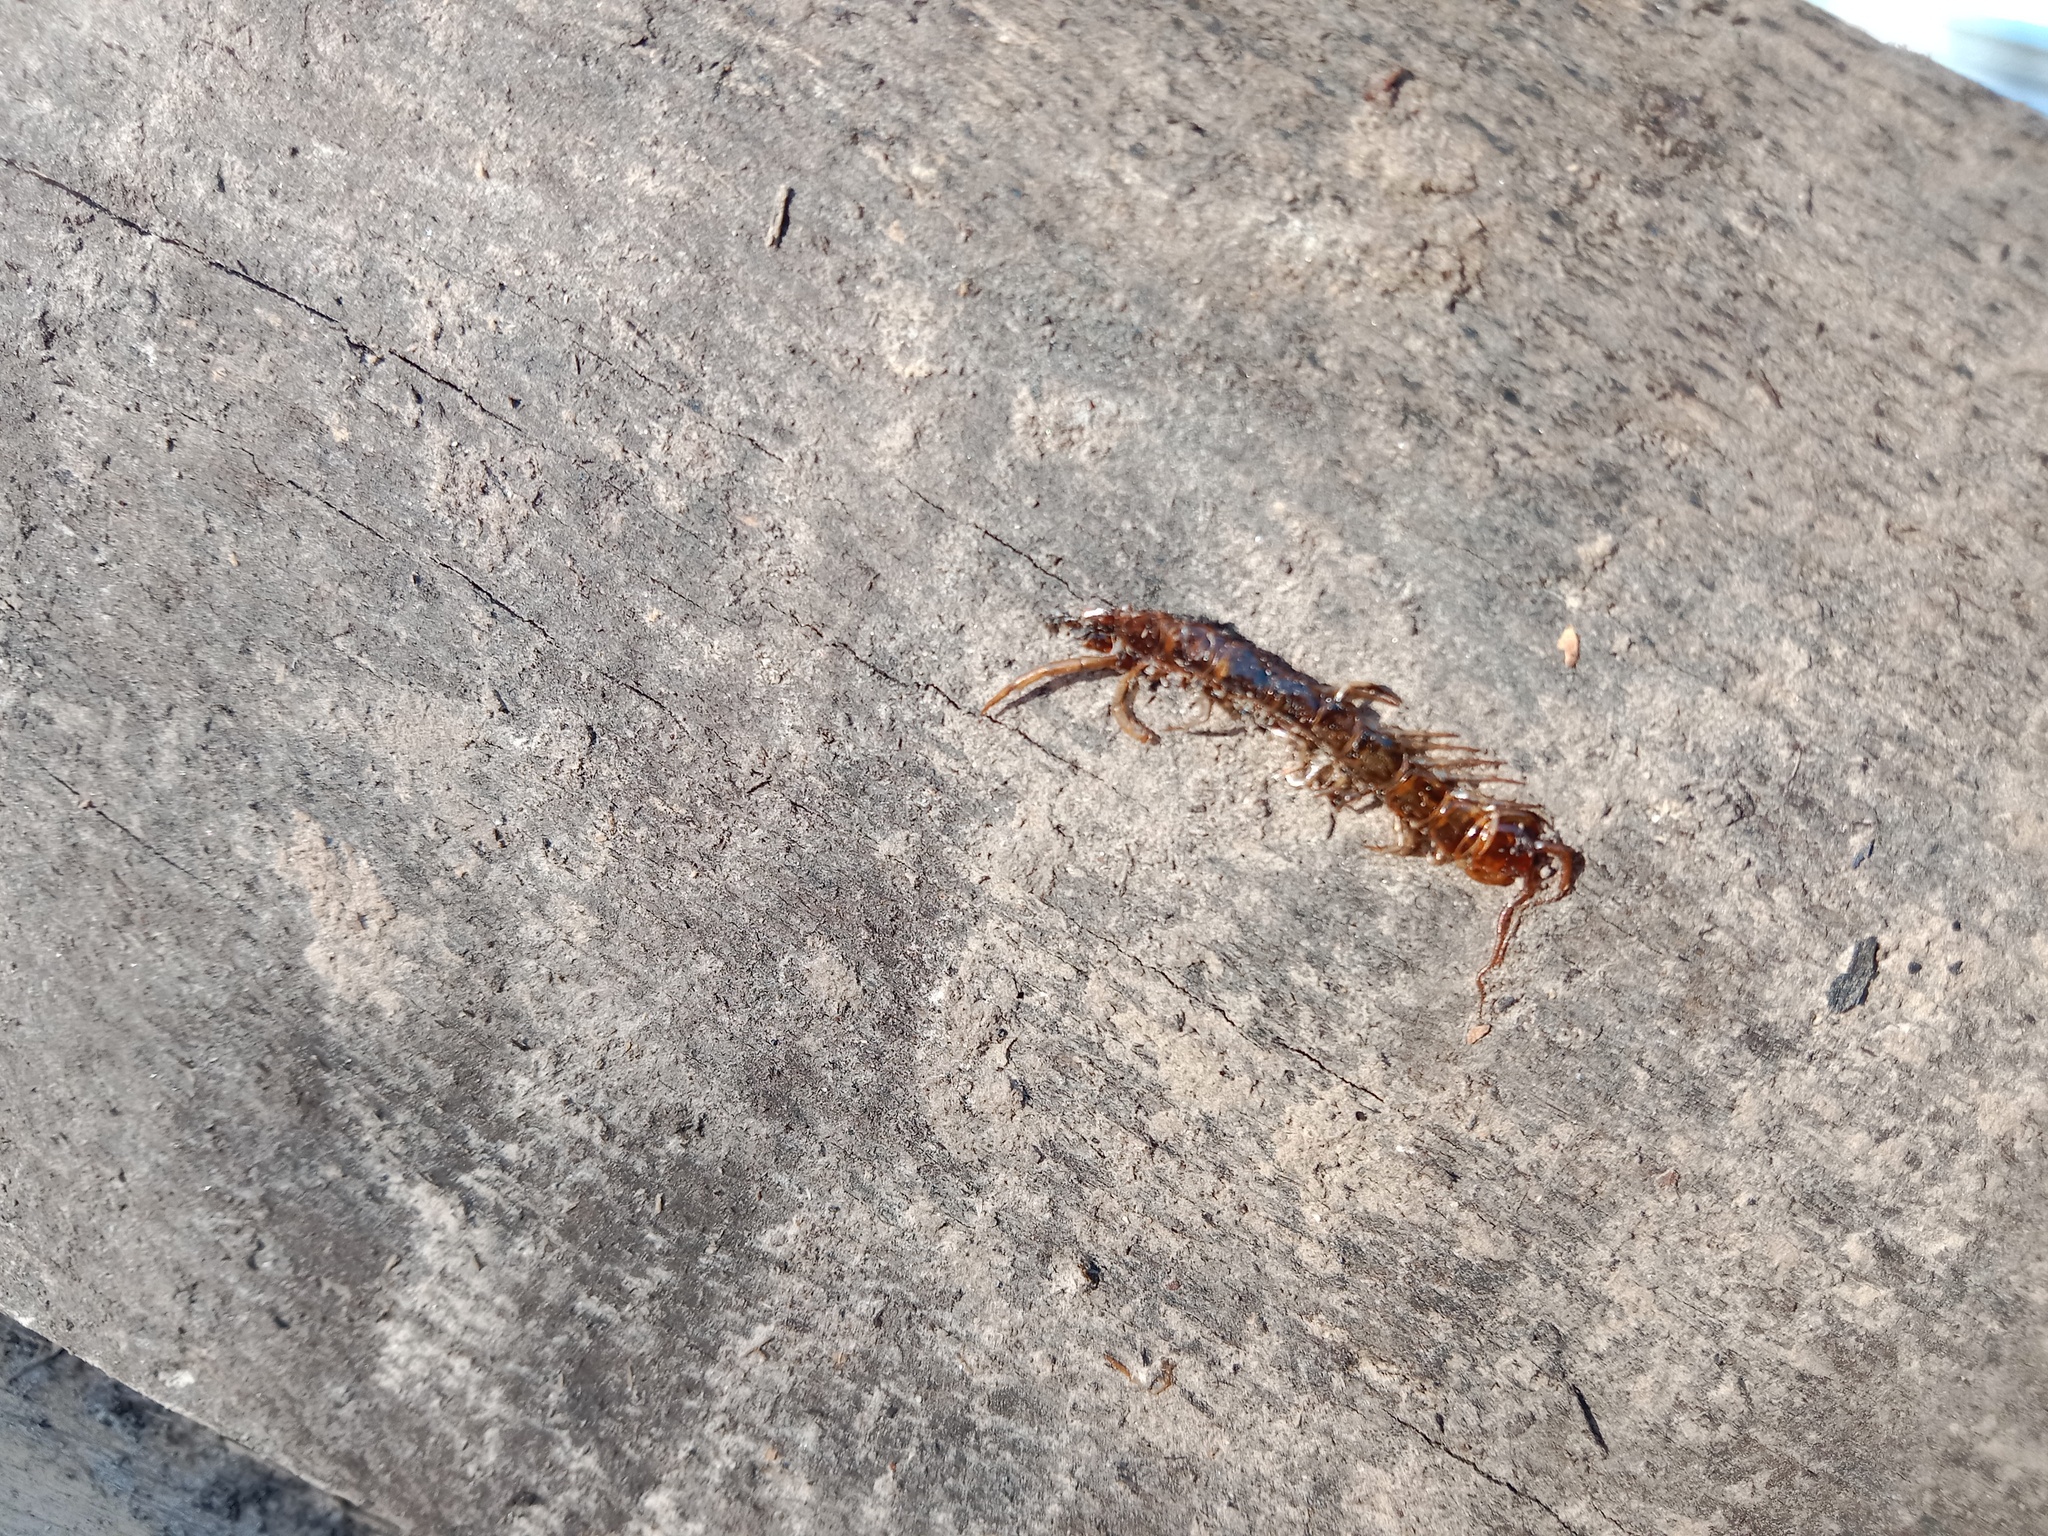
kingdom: Animalia
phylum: Arthropoda
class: Chilopoda
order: Lithobiomorpha
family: Lithobiidae
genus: Lithobius
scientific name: Lithobius forficatus
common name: Centipede
